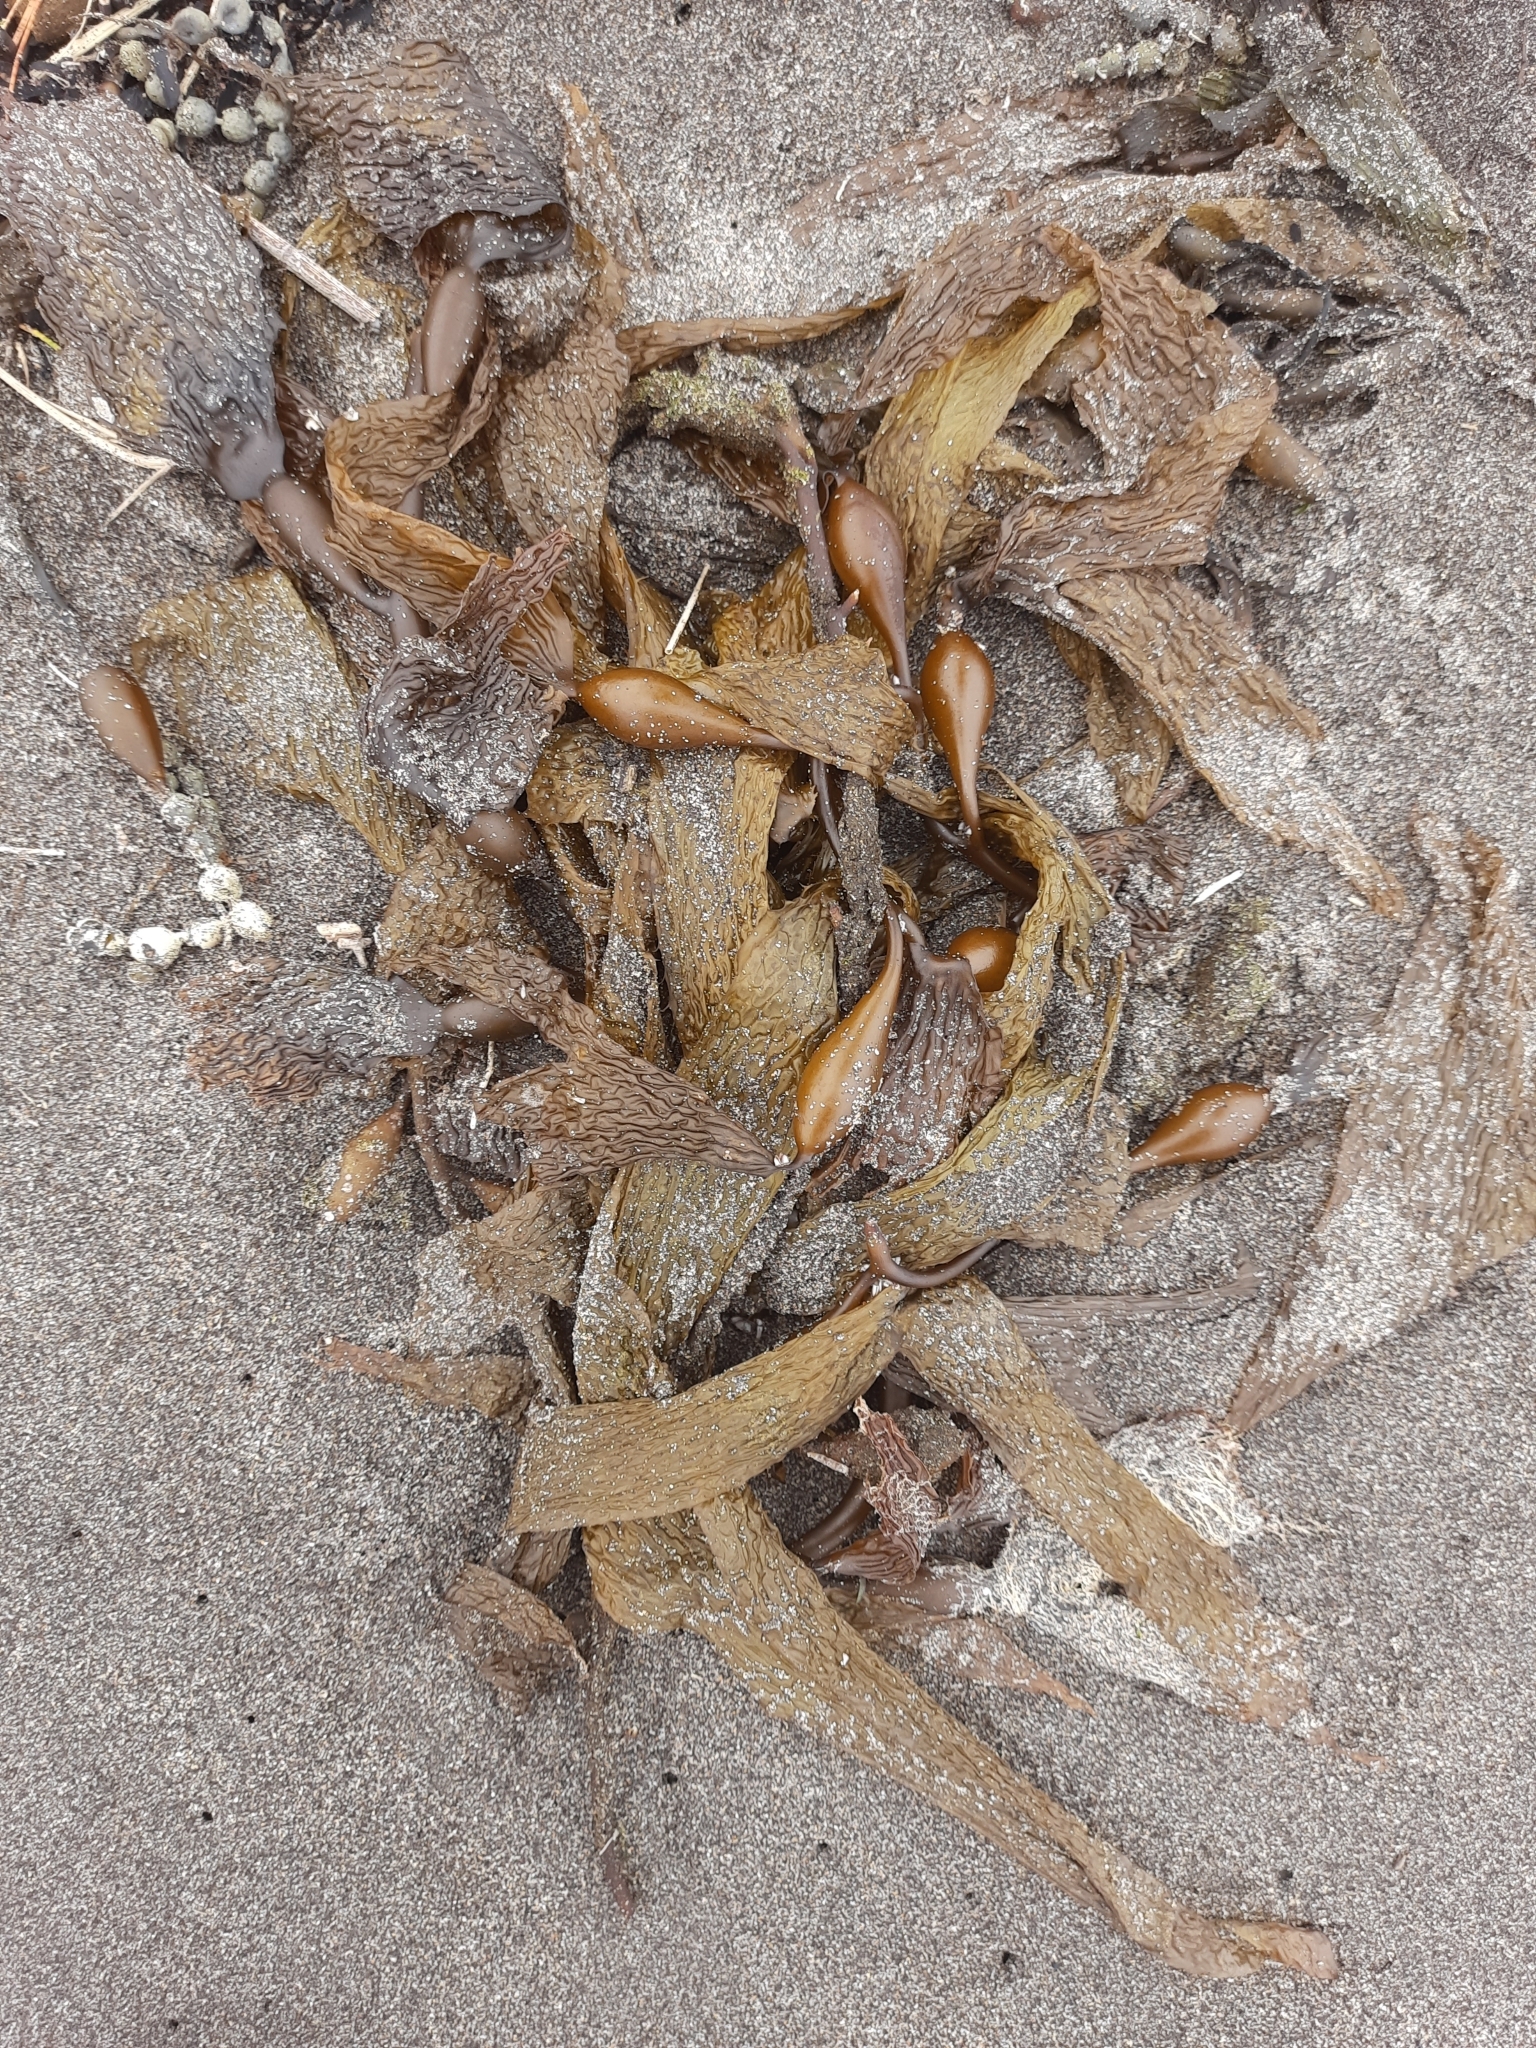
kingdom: Chromista
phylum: Ochrophyta
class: Phaeophyceae
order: Laminariales
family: Laminariaceae
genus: Macrocystis
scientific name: Macrocystis pyrifera
